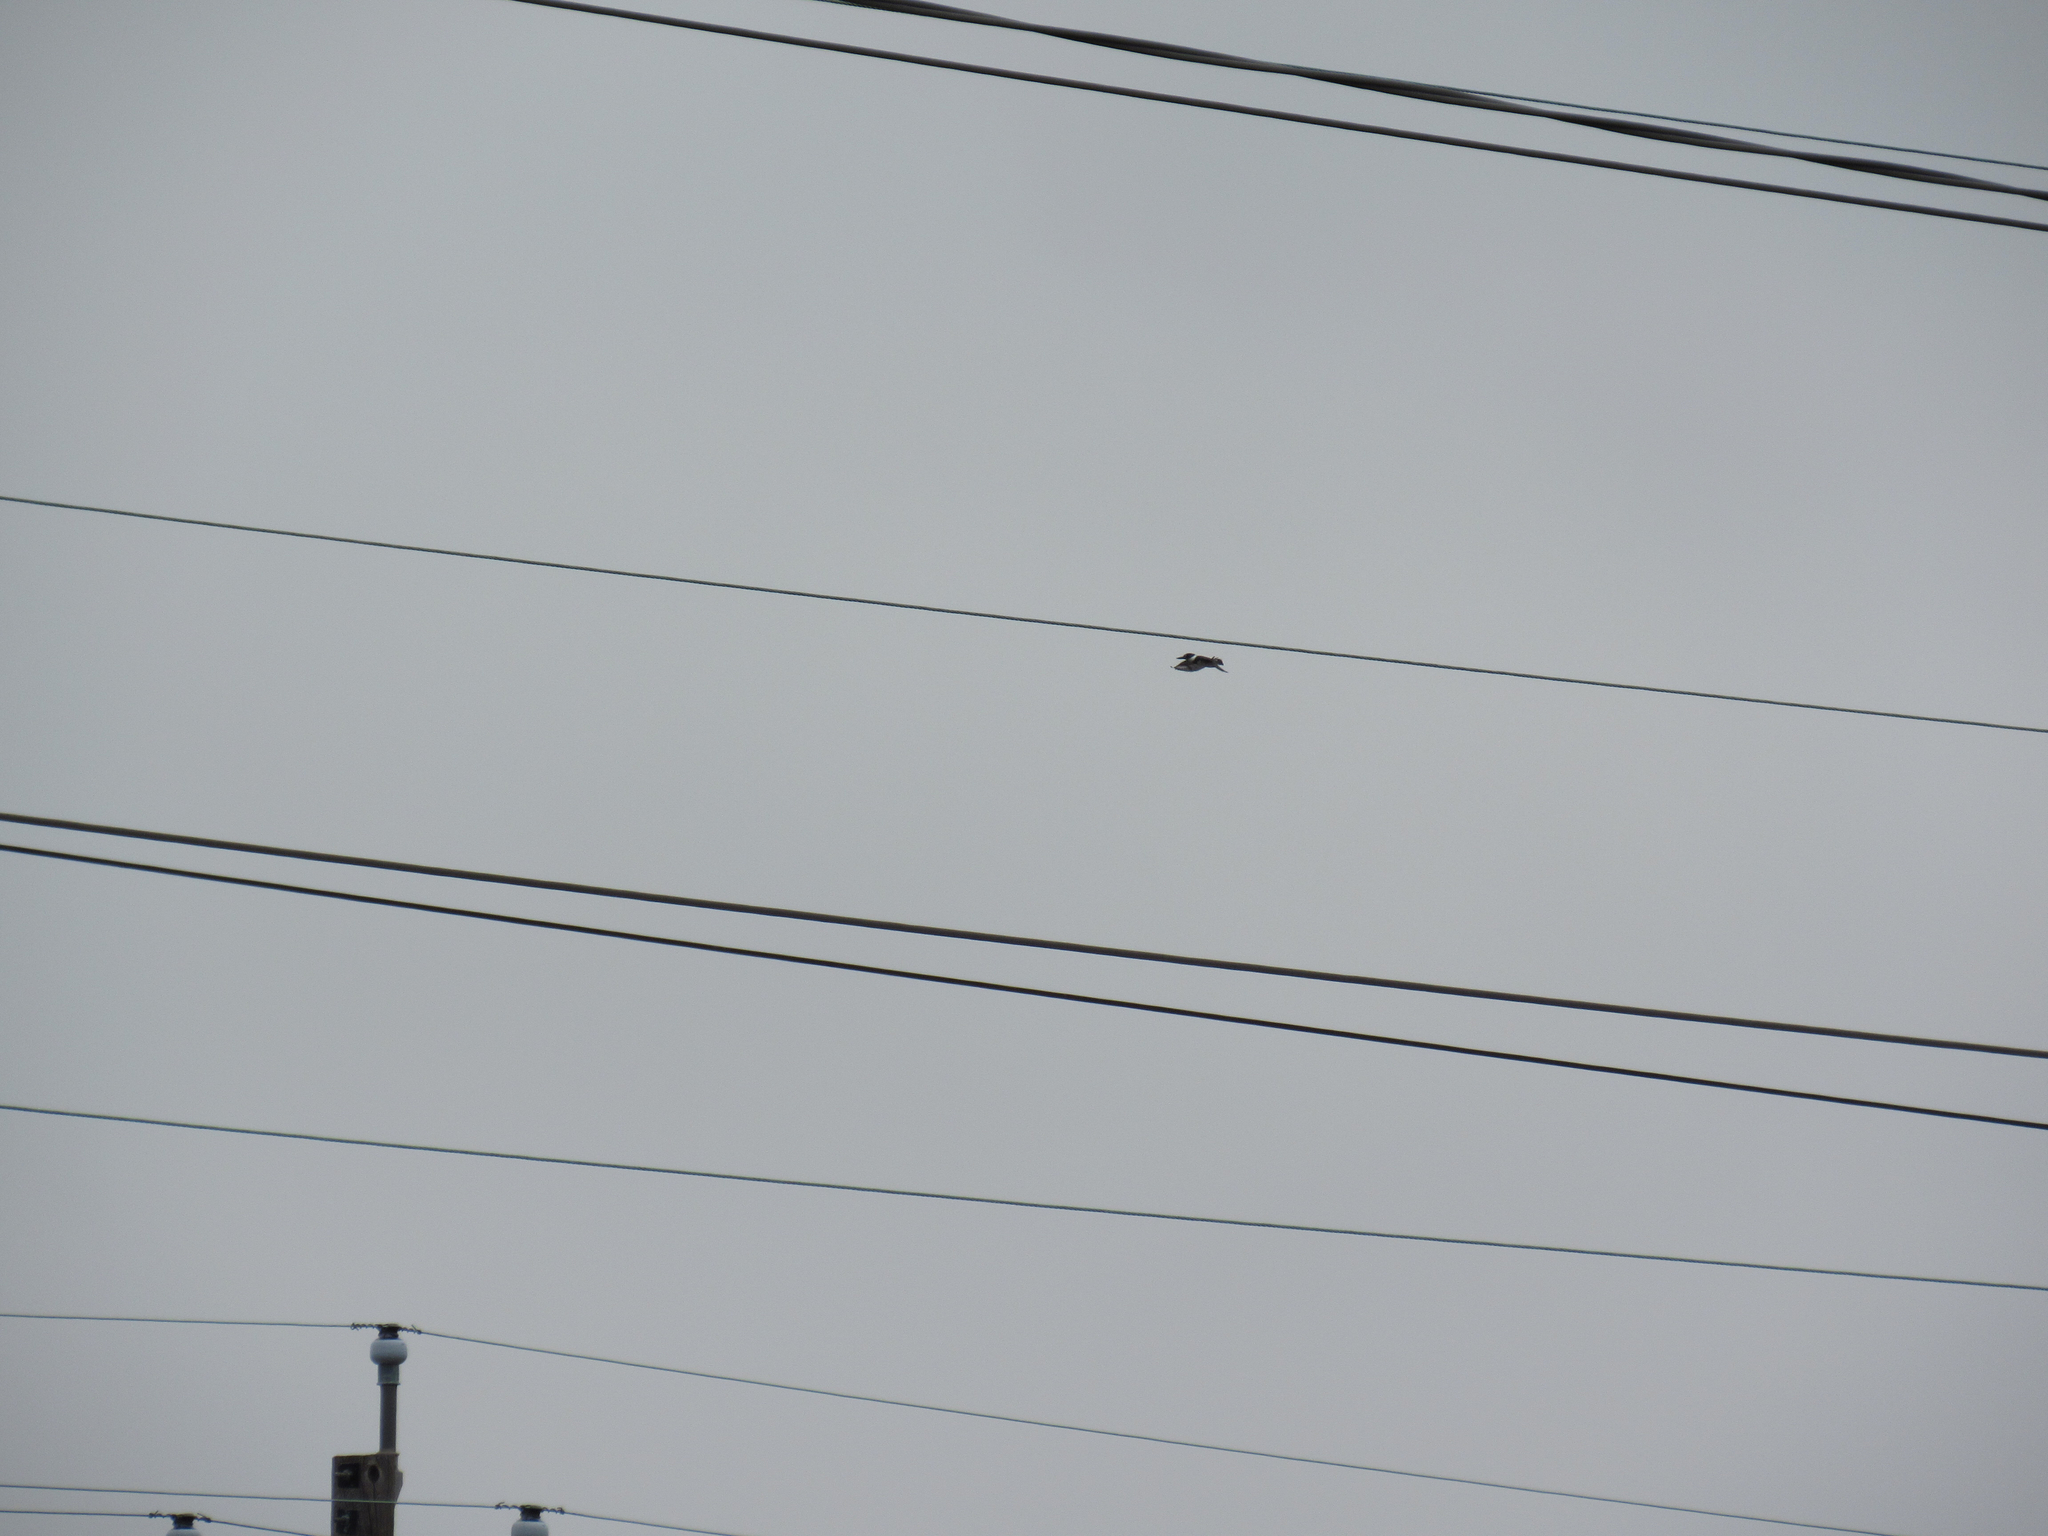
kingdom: Animalia
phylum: Chordata
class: Aves
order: Coraciiformes
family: Alcedinidae
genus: Megaceryle
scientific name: Megaceryle alcyon
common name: Belted kingfisher
